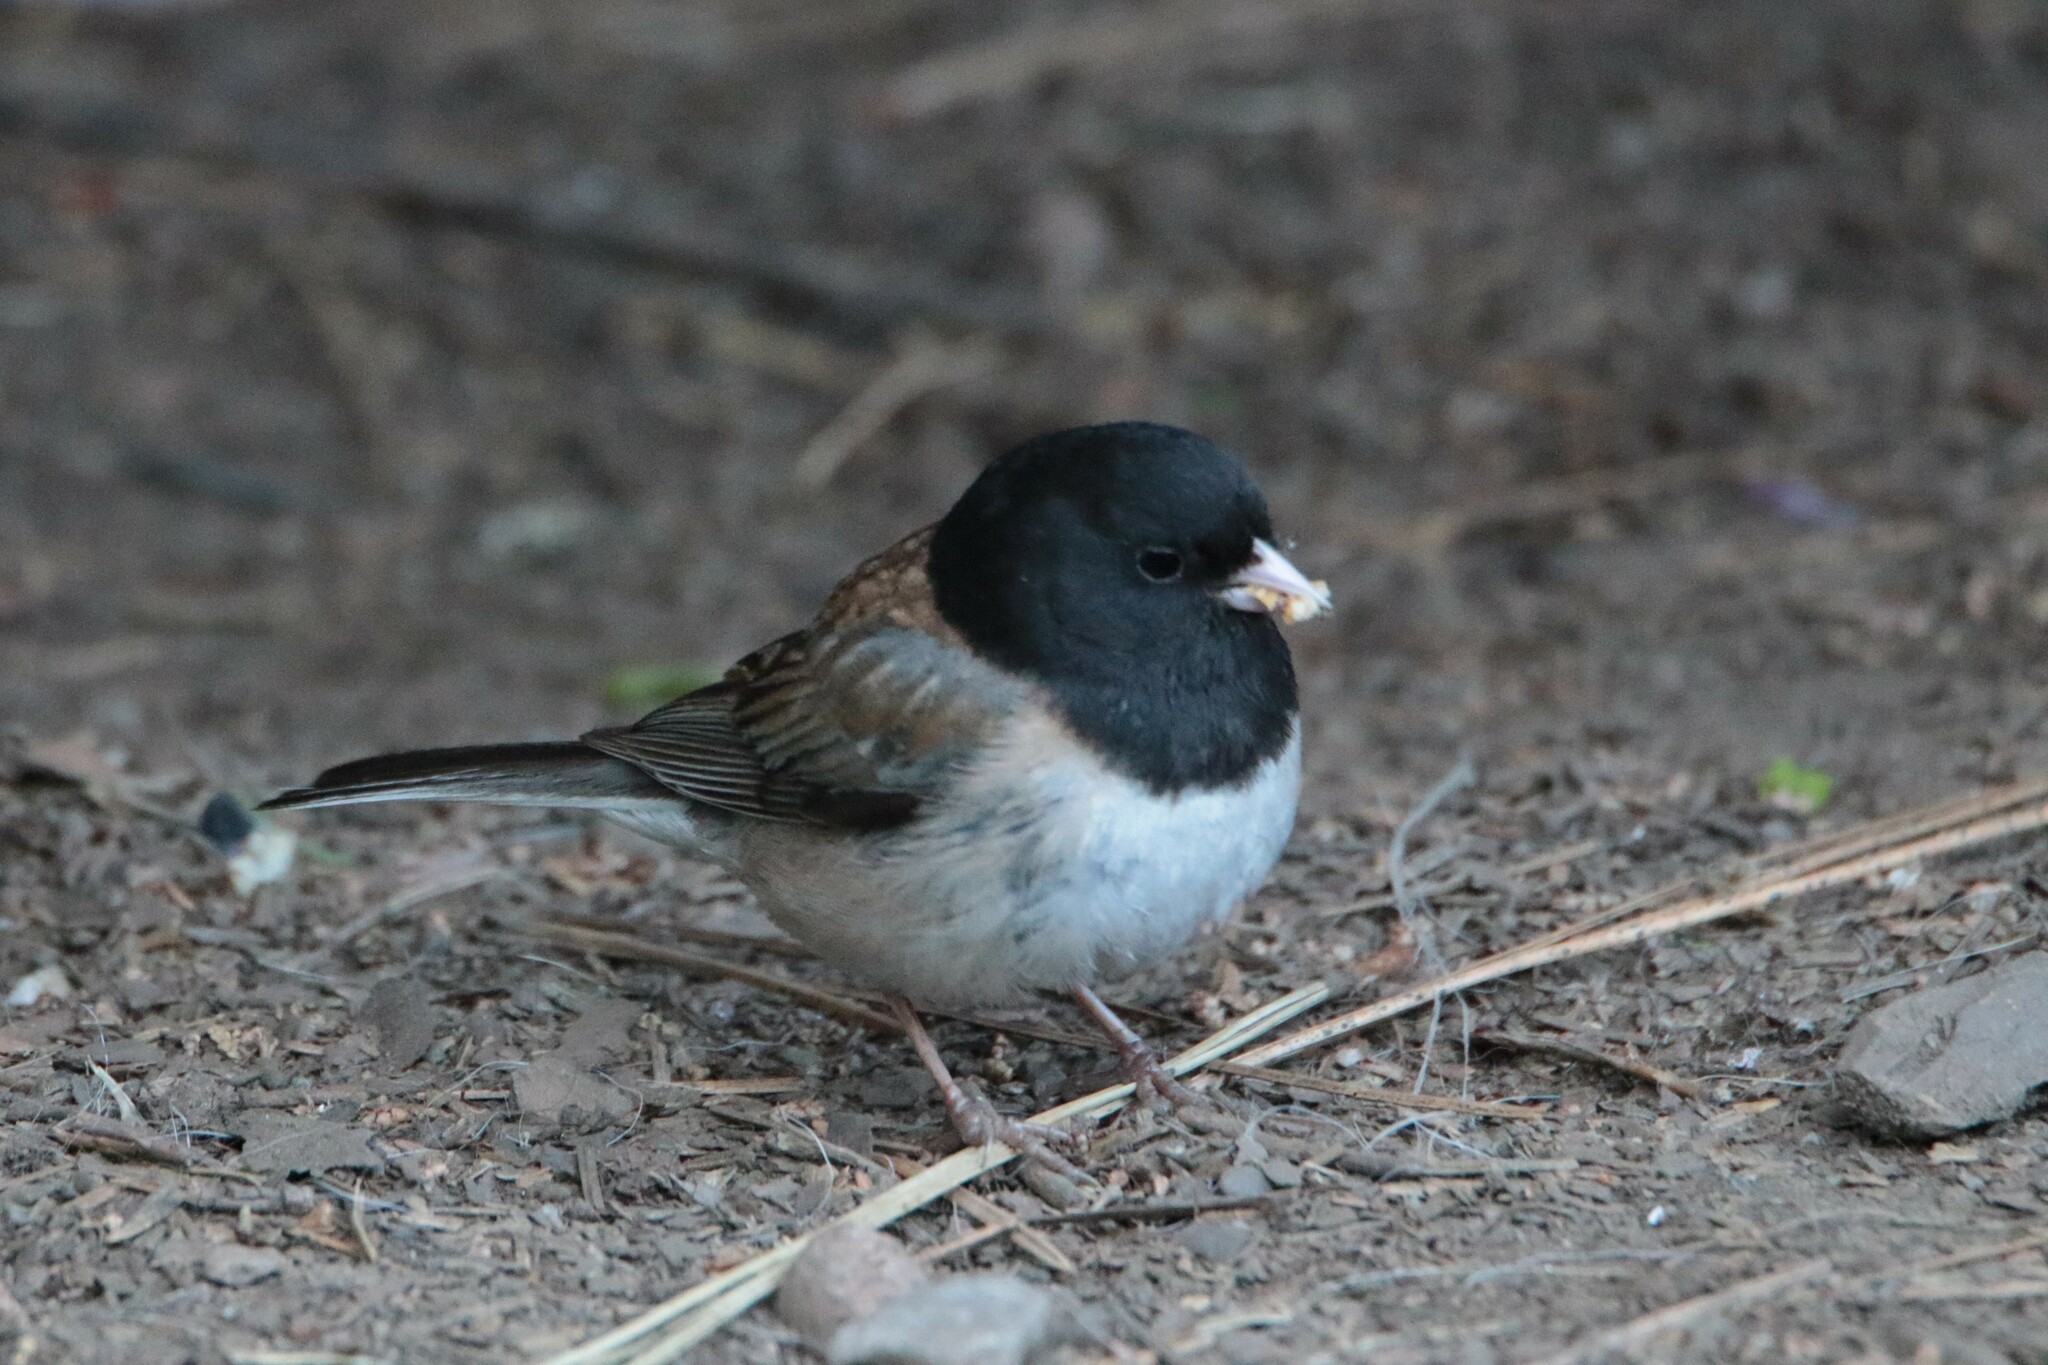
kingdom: Animalia
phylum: Chordata
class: Aves
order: Passeriformes
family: Passerellidae
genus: Junco
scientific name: Junco hyemalis
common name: Dark-eyed junco
